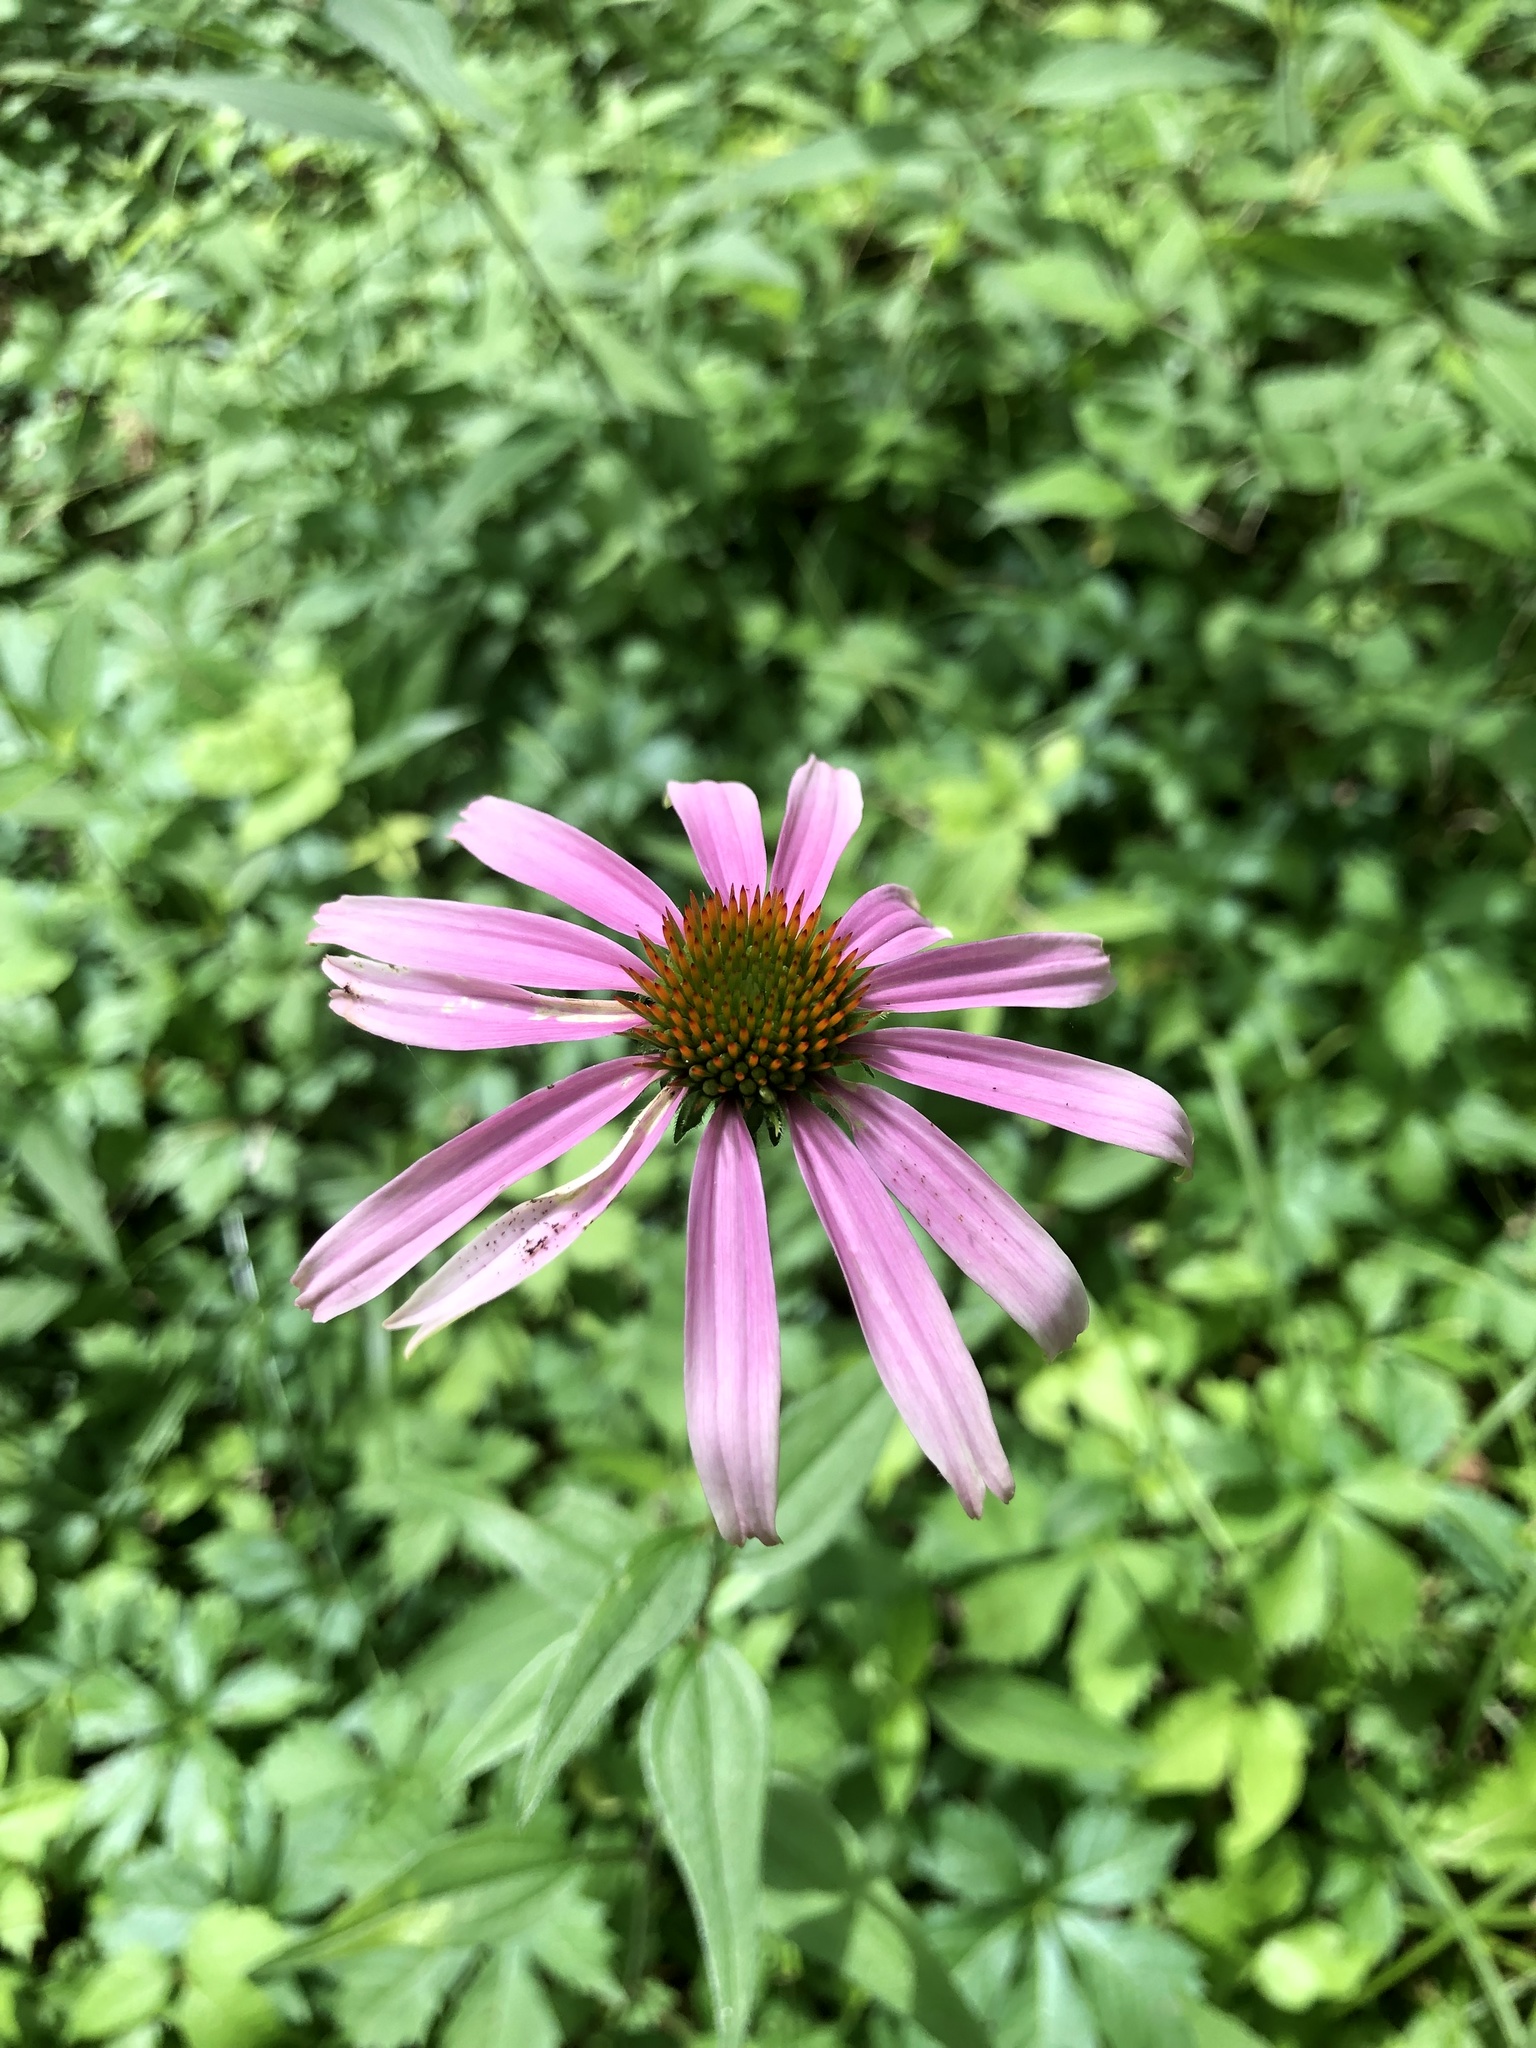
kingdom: Plantae
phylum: Tracheophyta
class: Magnoliopsida
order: Asterales
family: Asteraceae
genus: Echinacea
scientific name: Echinacea purpurea
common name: Broad-leaved purple coneflower
